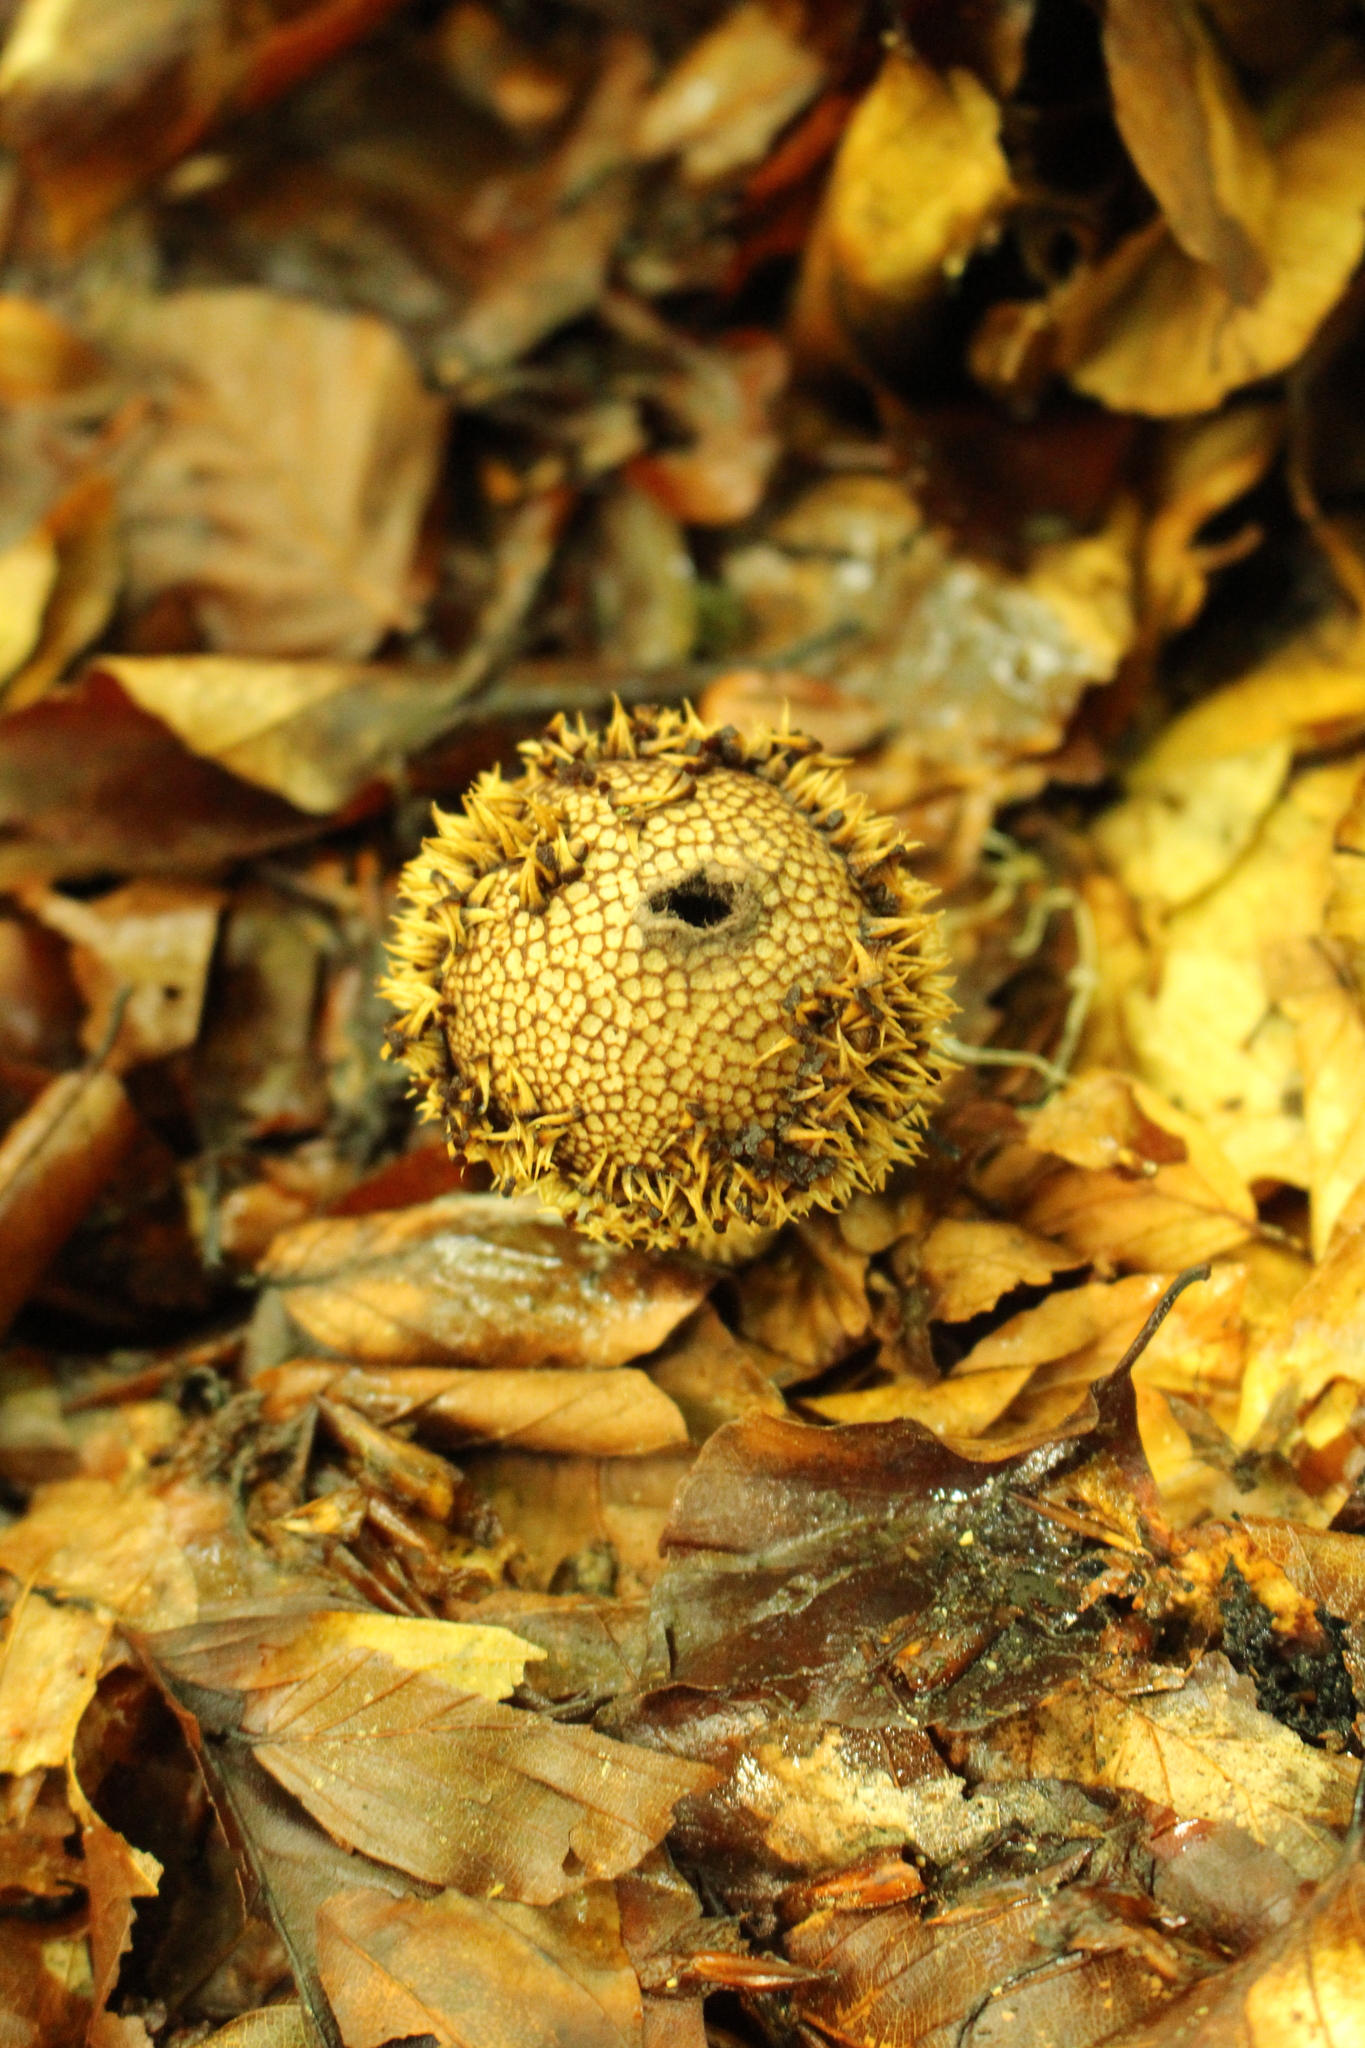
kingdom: Fungi
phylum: Basidiomycota
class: Agaricomycetes
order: Agaricales
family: Lycoperdaceae
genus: Lycoperdon
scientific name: Lycoperdon echinatum
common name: Hedgehog puffball
